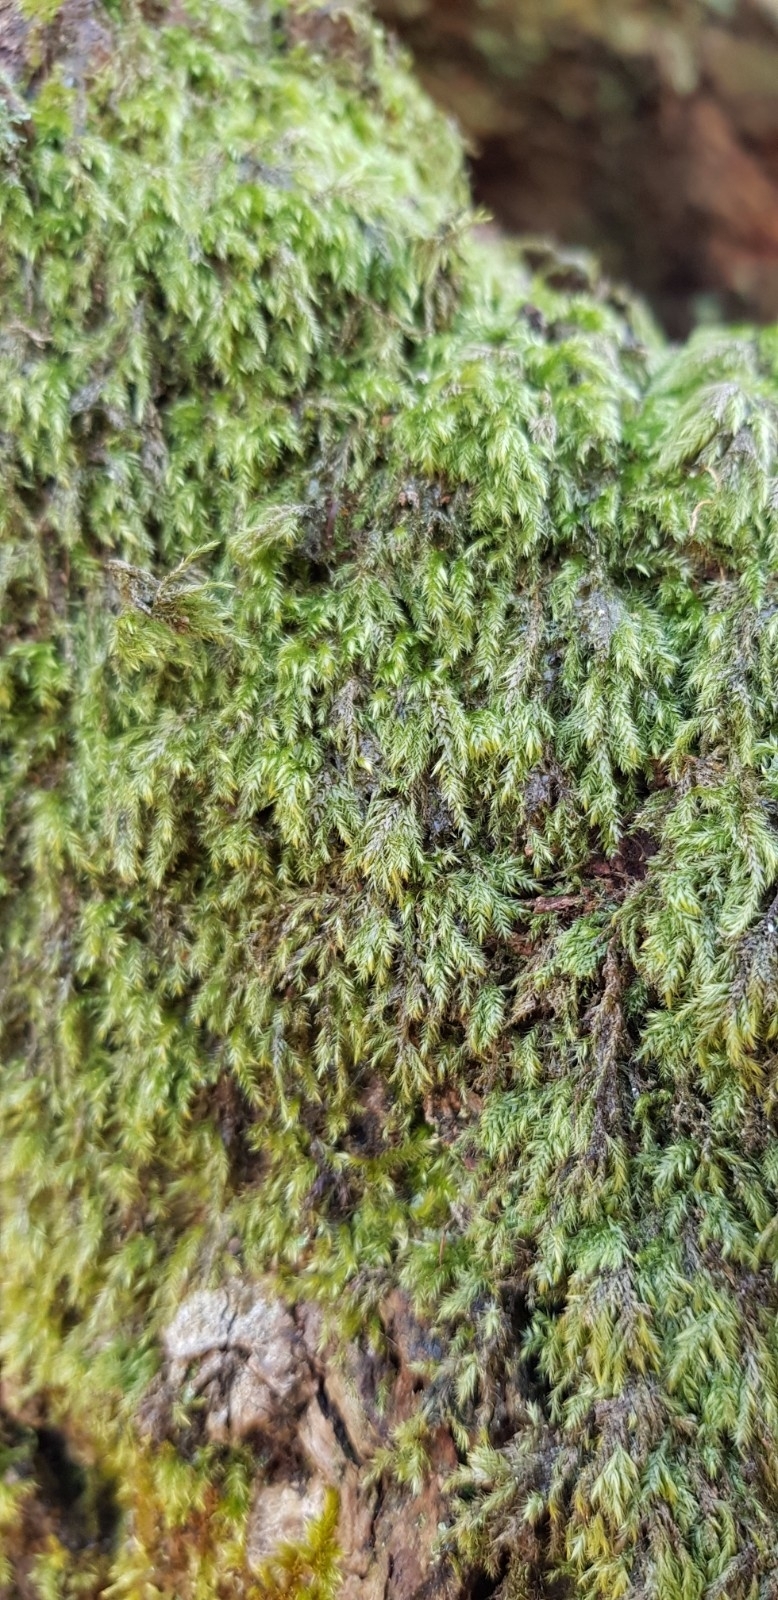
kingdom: Plantae
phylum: Bryophyta
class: Bryopsida
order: Hypnales
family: Lembophyllaceae
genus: Pseudisothecium
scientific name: Pseudisothecium myosuroides
